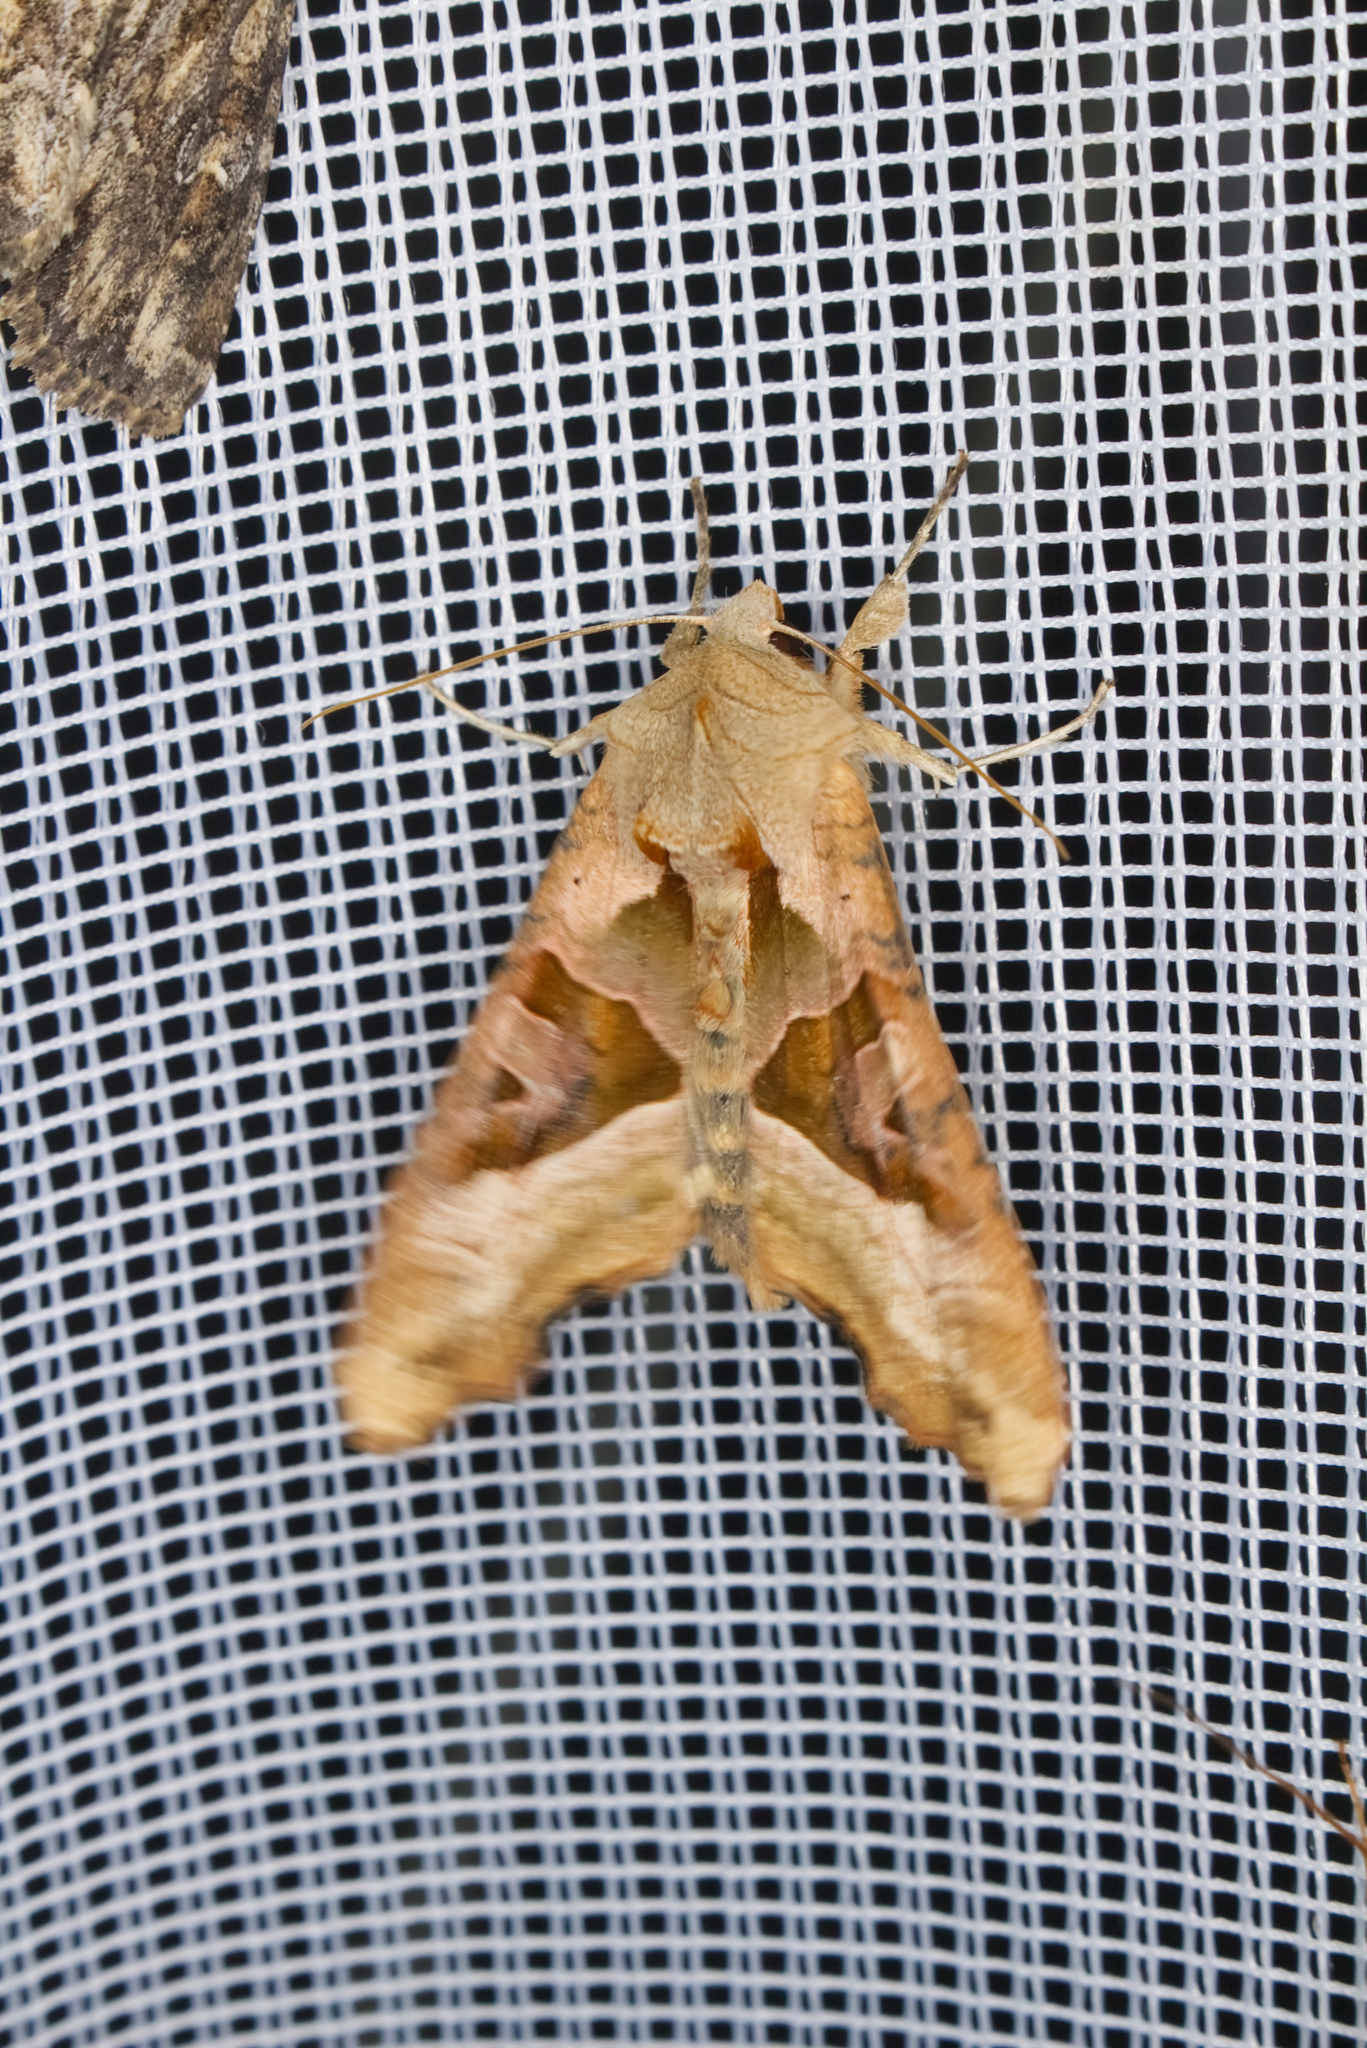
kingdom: Animalia
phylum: Arthropoda
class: Insecta
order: Lepidoptera
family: Noctuidae
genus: Phlogophora
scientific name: Phlogophora meticulosa
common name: Angle shades
